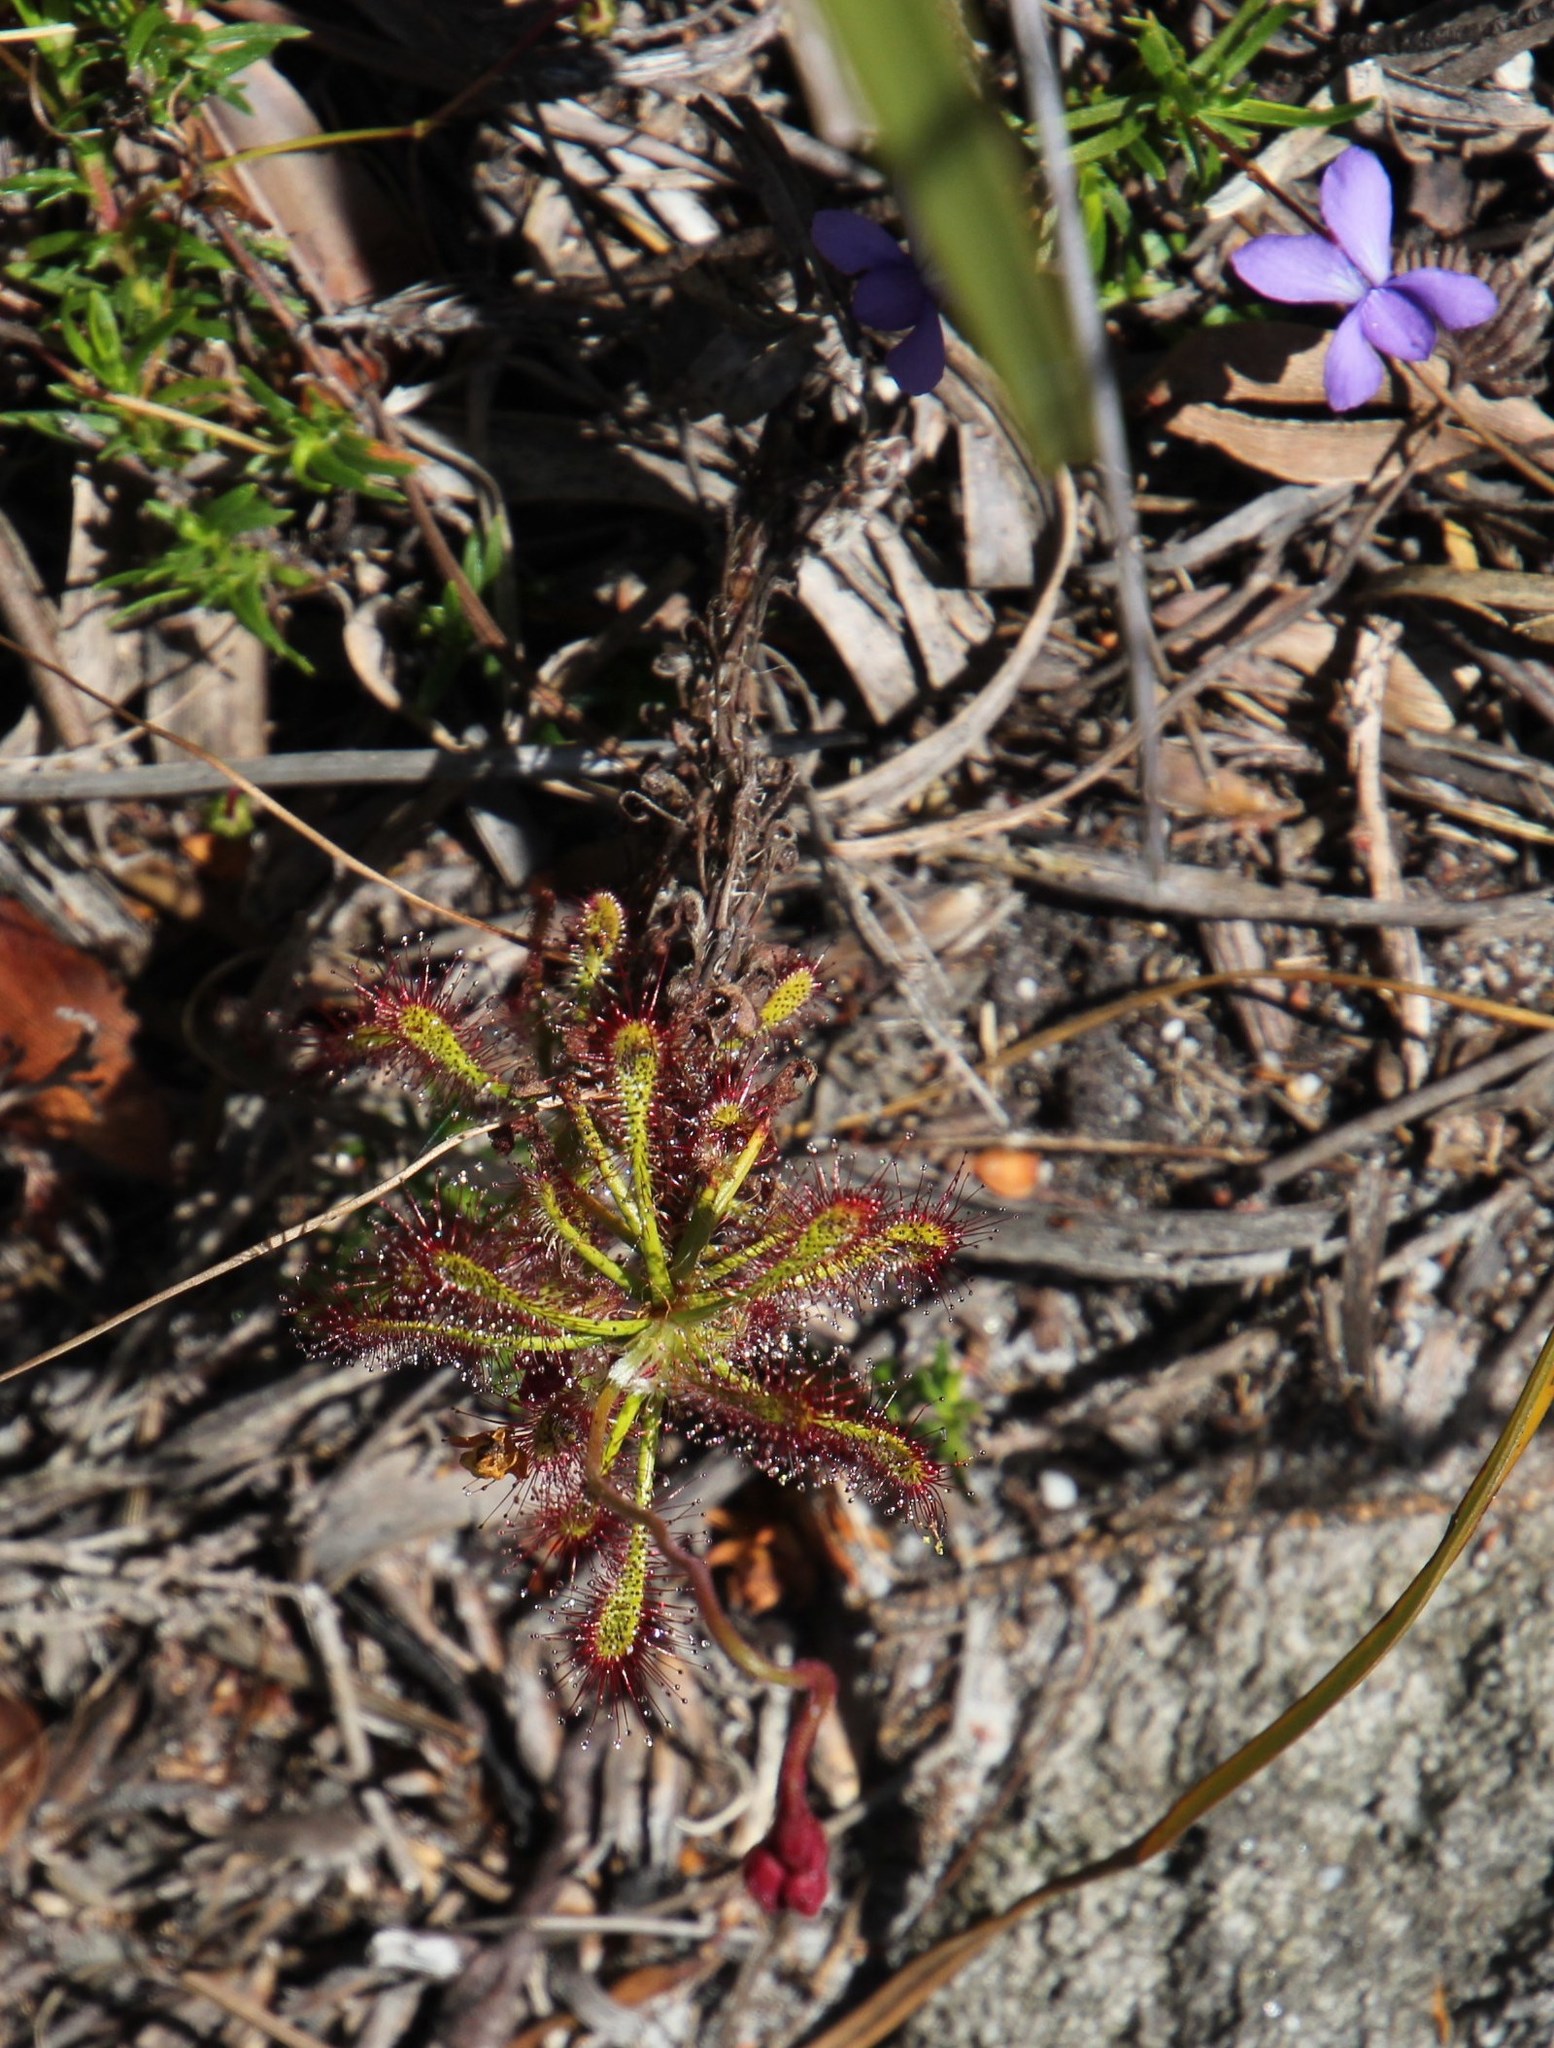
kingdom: Plantae
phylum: Tracheophyta
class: Magnoliopsida
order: Caryophyllales
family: Droseraceae
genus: Drosera
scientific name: Drosera glabripes
